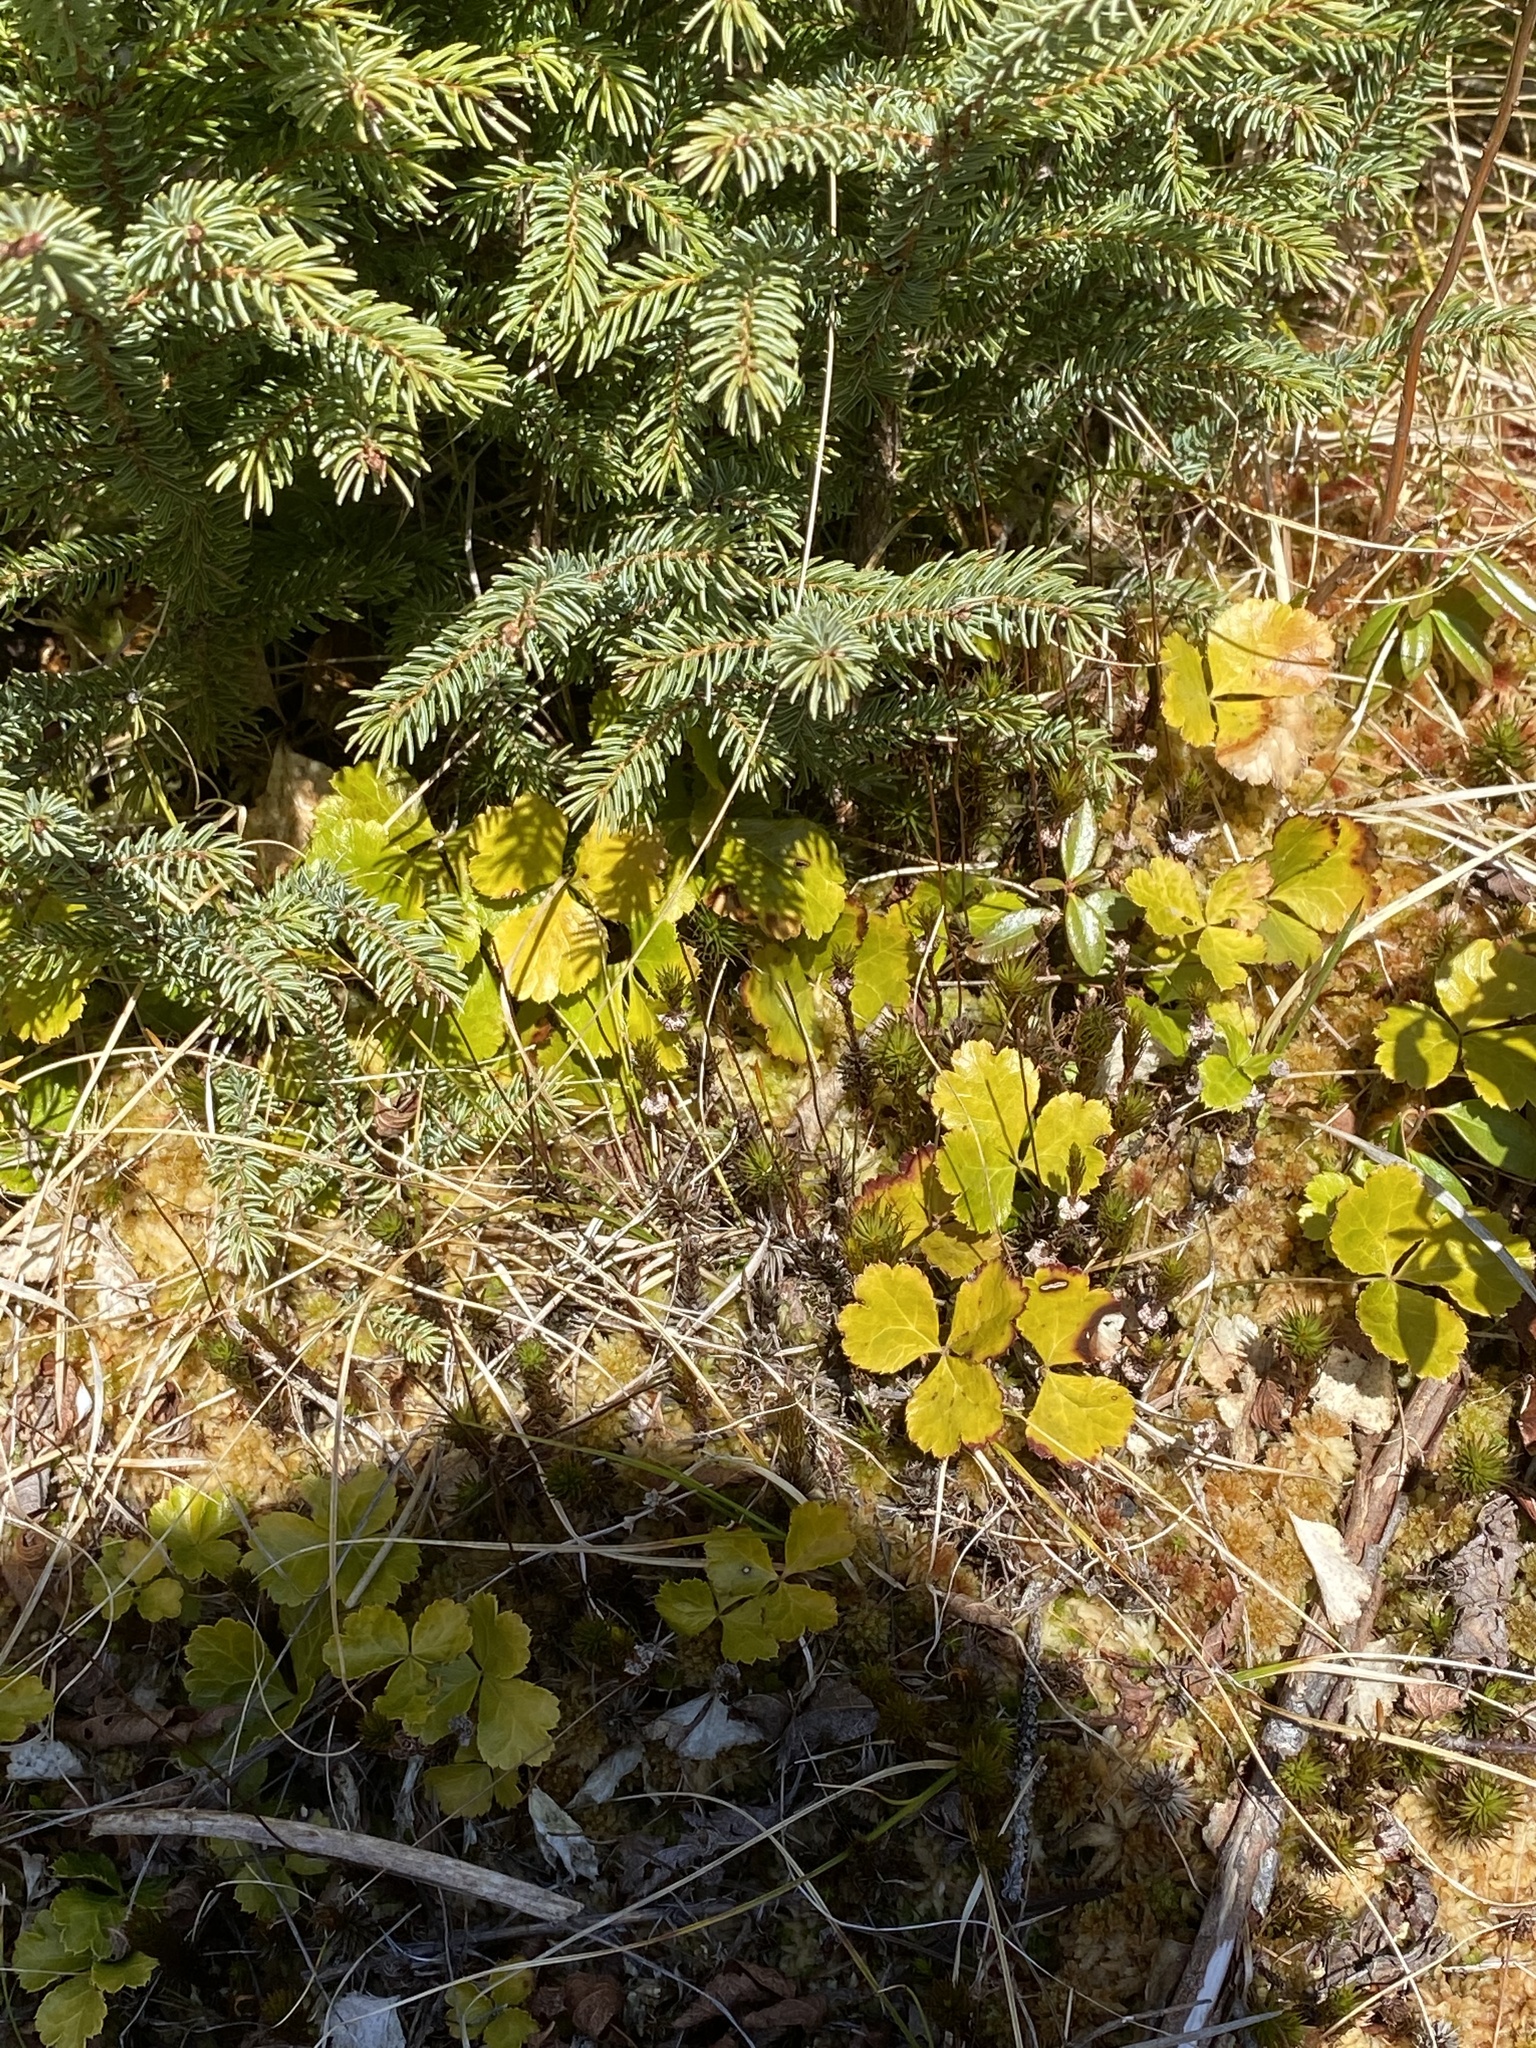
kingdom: Plantae
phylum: Tracheophyta
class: Magnoliopsida
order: Ranunculales
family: Ranunculaceae
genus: Coptis
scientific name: Coptis trifolia
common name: Canker-root
